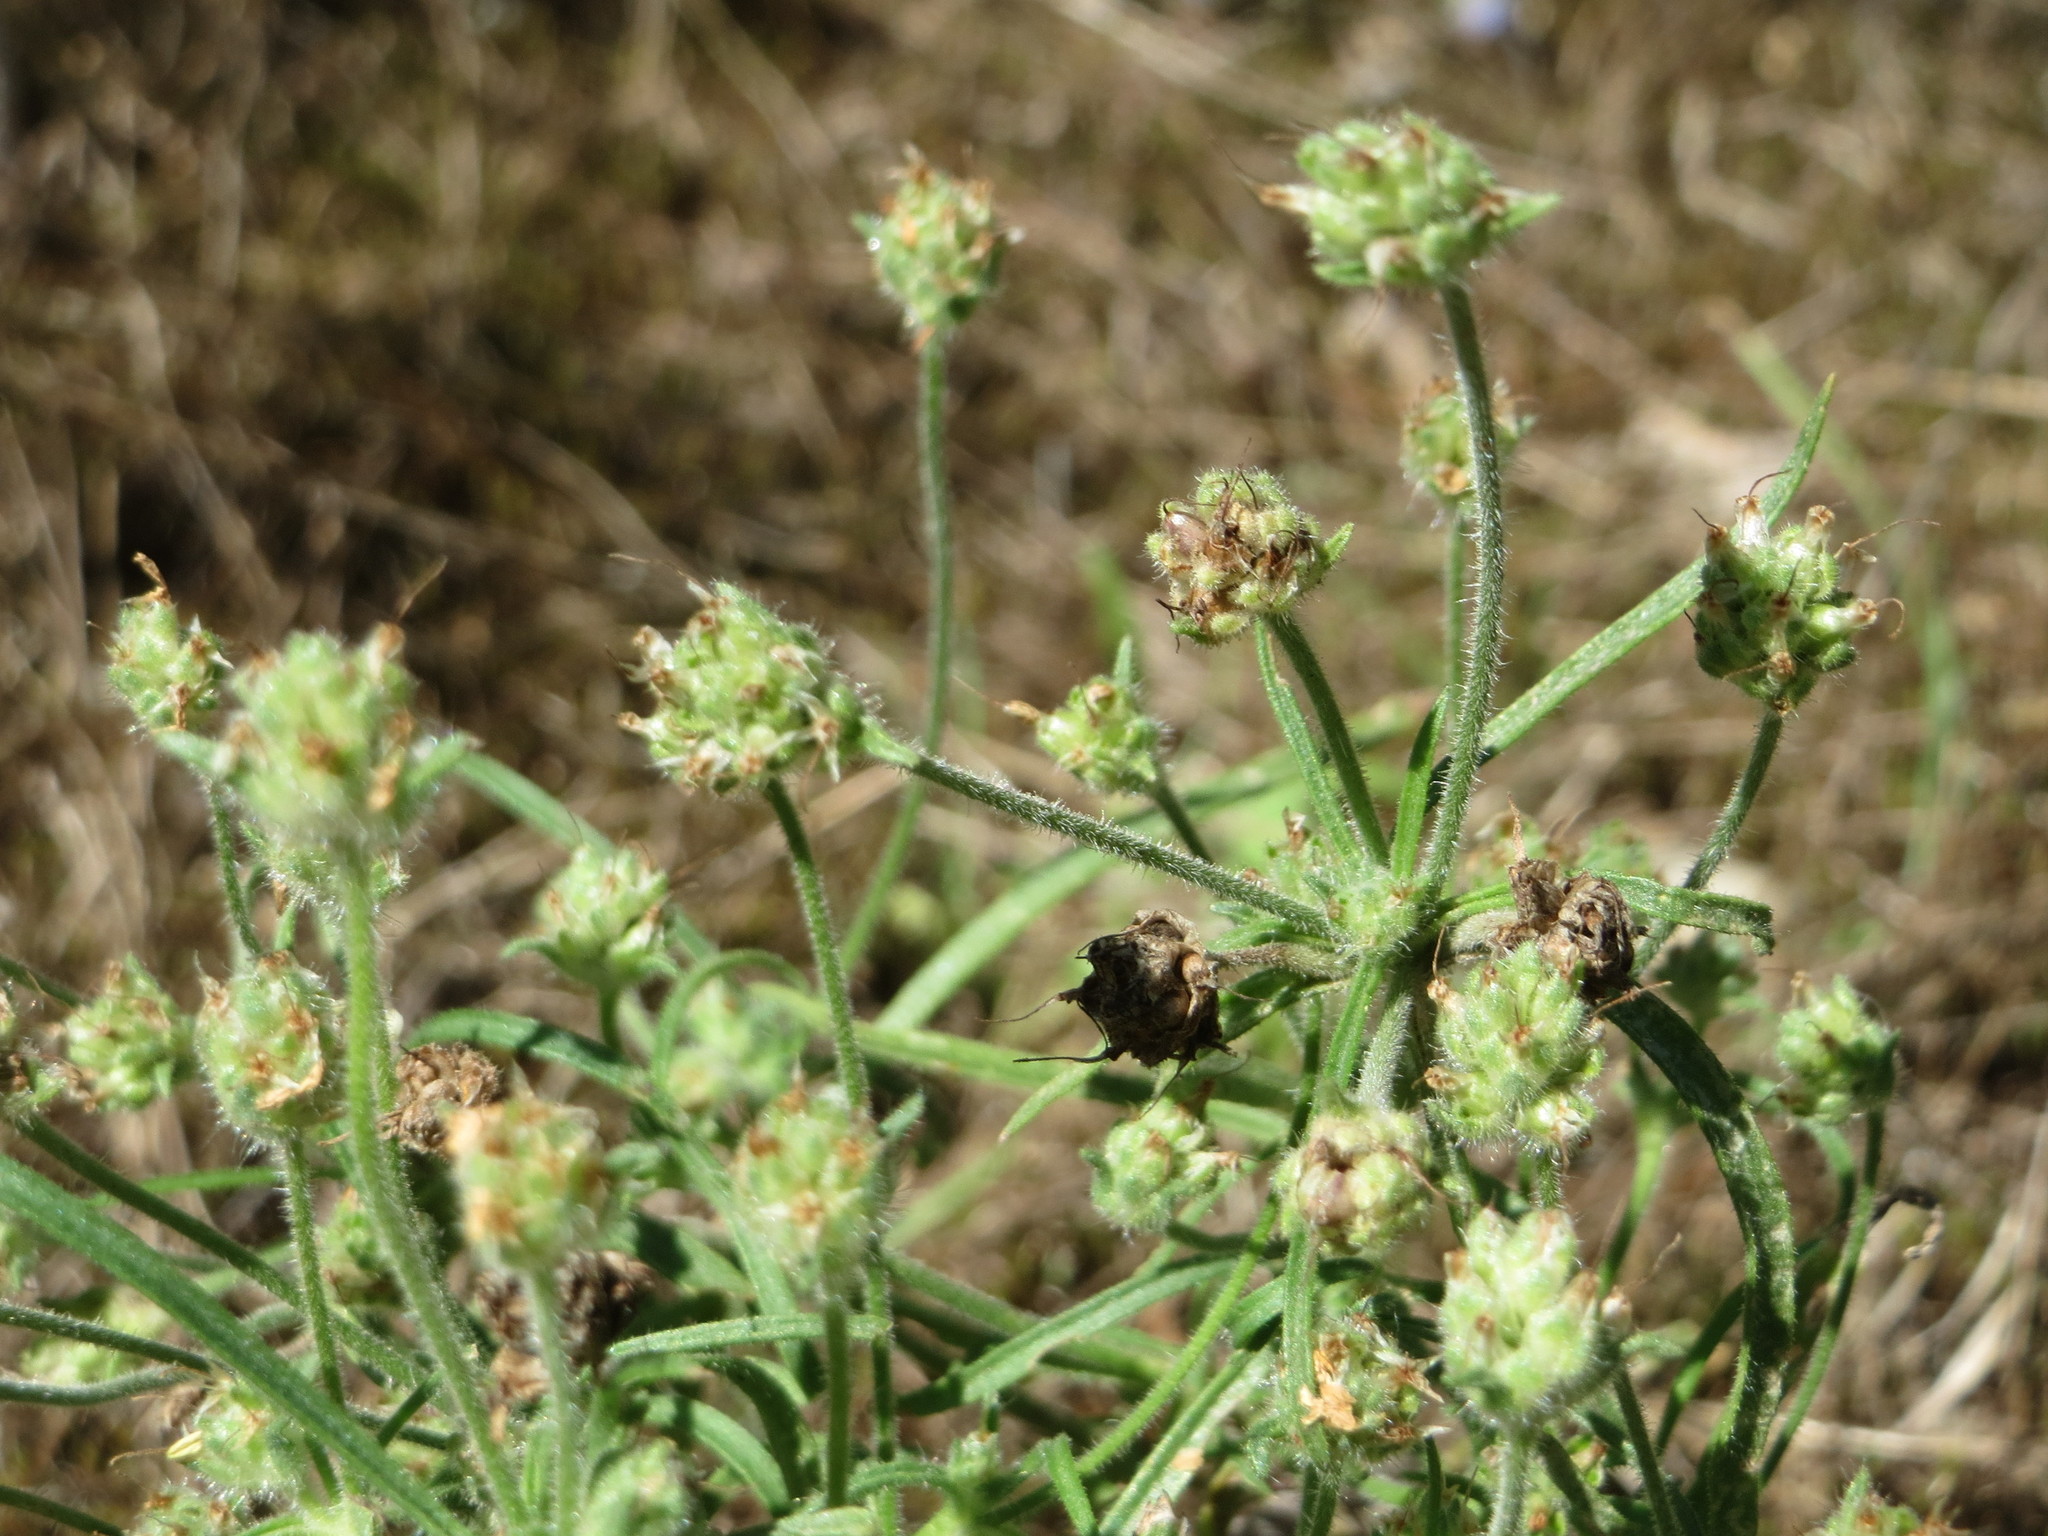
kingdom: Plantae
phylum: Tracheophyta
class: Magnoliopsida
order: Lamiales
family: Plantaginaceae
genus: Plantago
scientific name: Plantago arenaria
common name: Branched plantain
